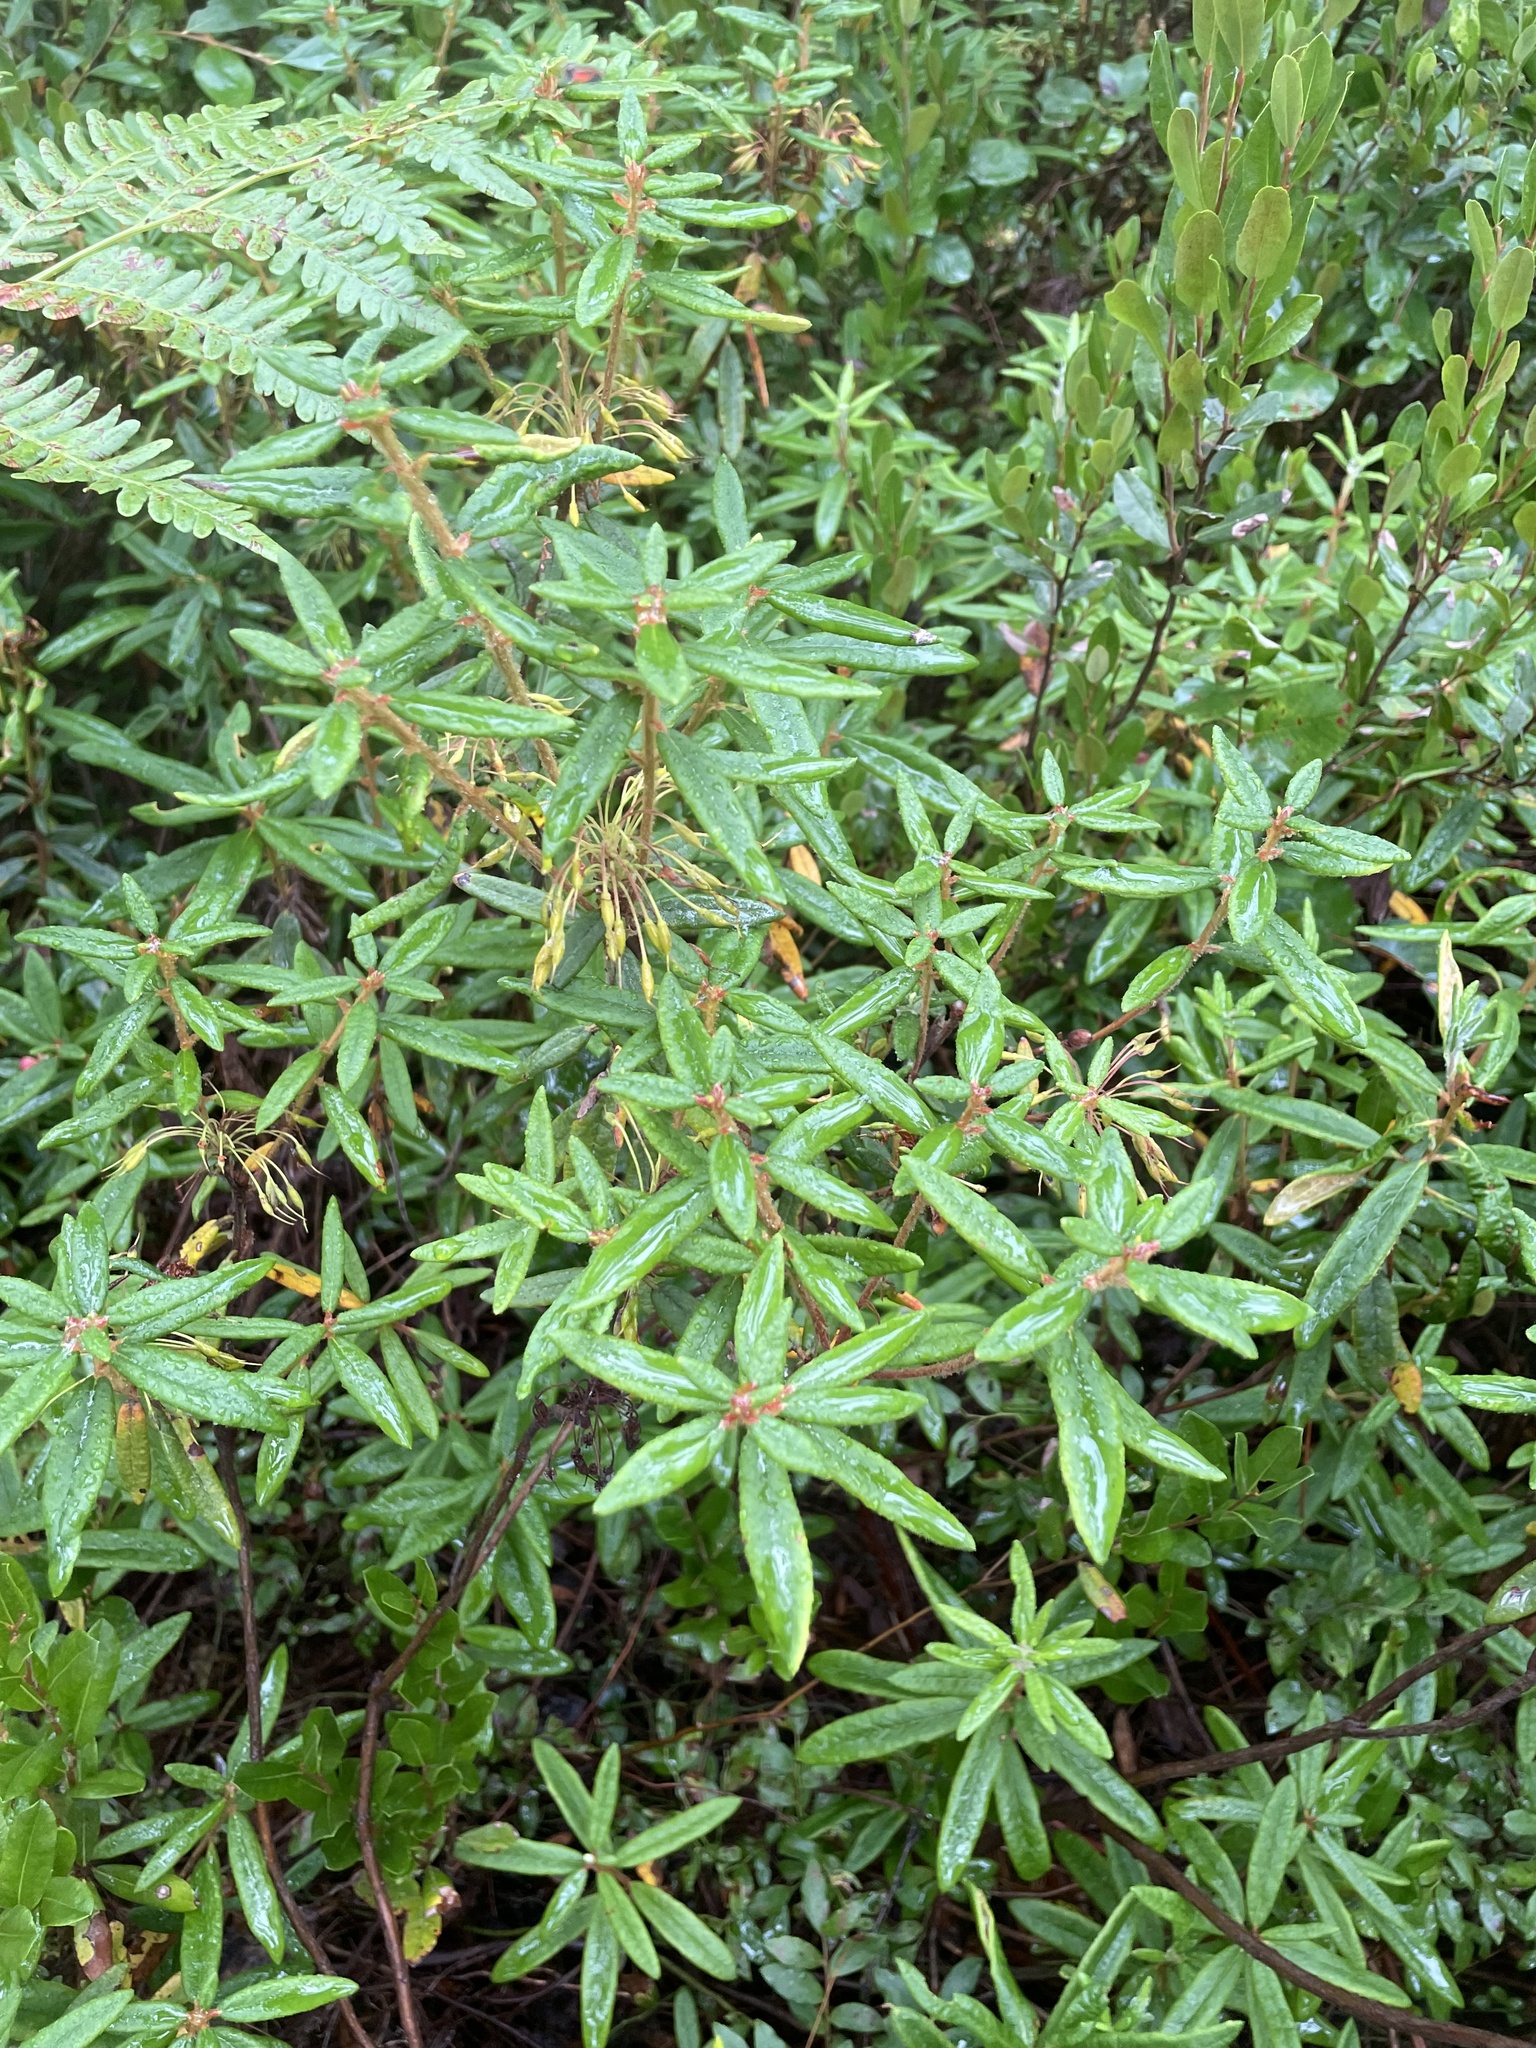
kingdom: Plantae
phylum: Tracheophyta
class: Magnoliopsida
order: Ericales
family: Ericaceae
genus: Rhododendron
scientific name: Rhododendron groenlandicum
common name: Bog labrador tea
